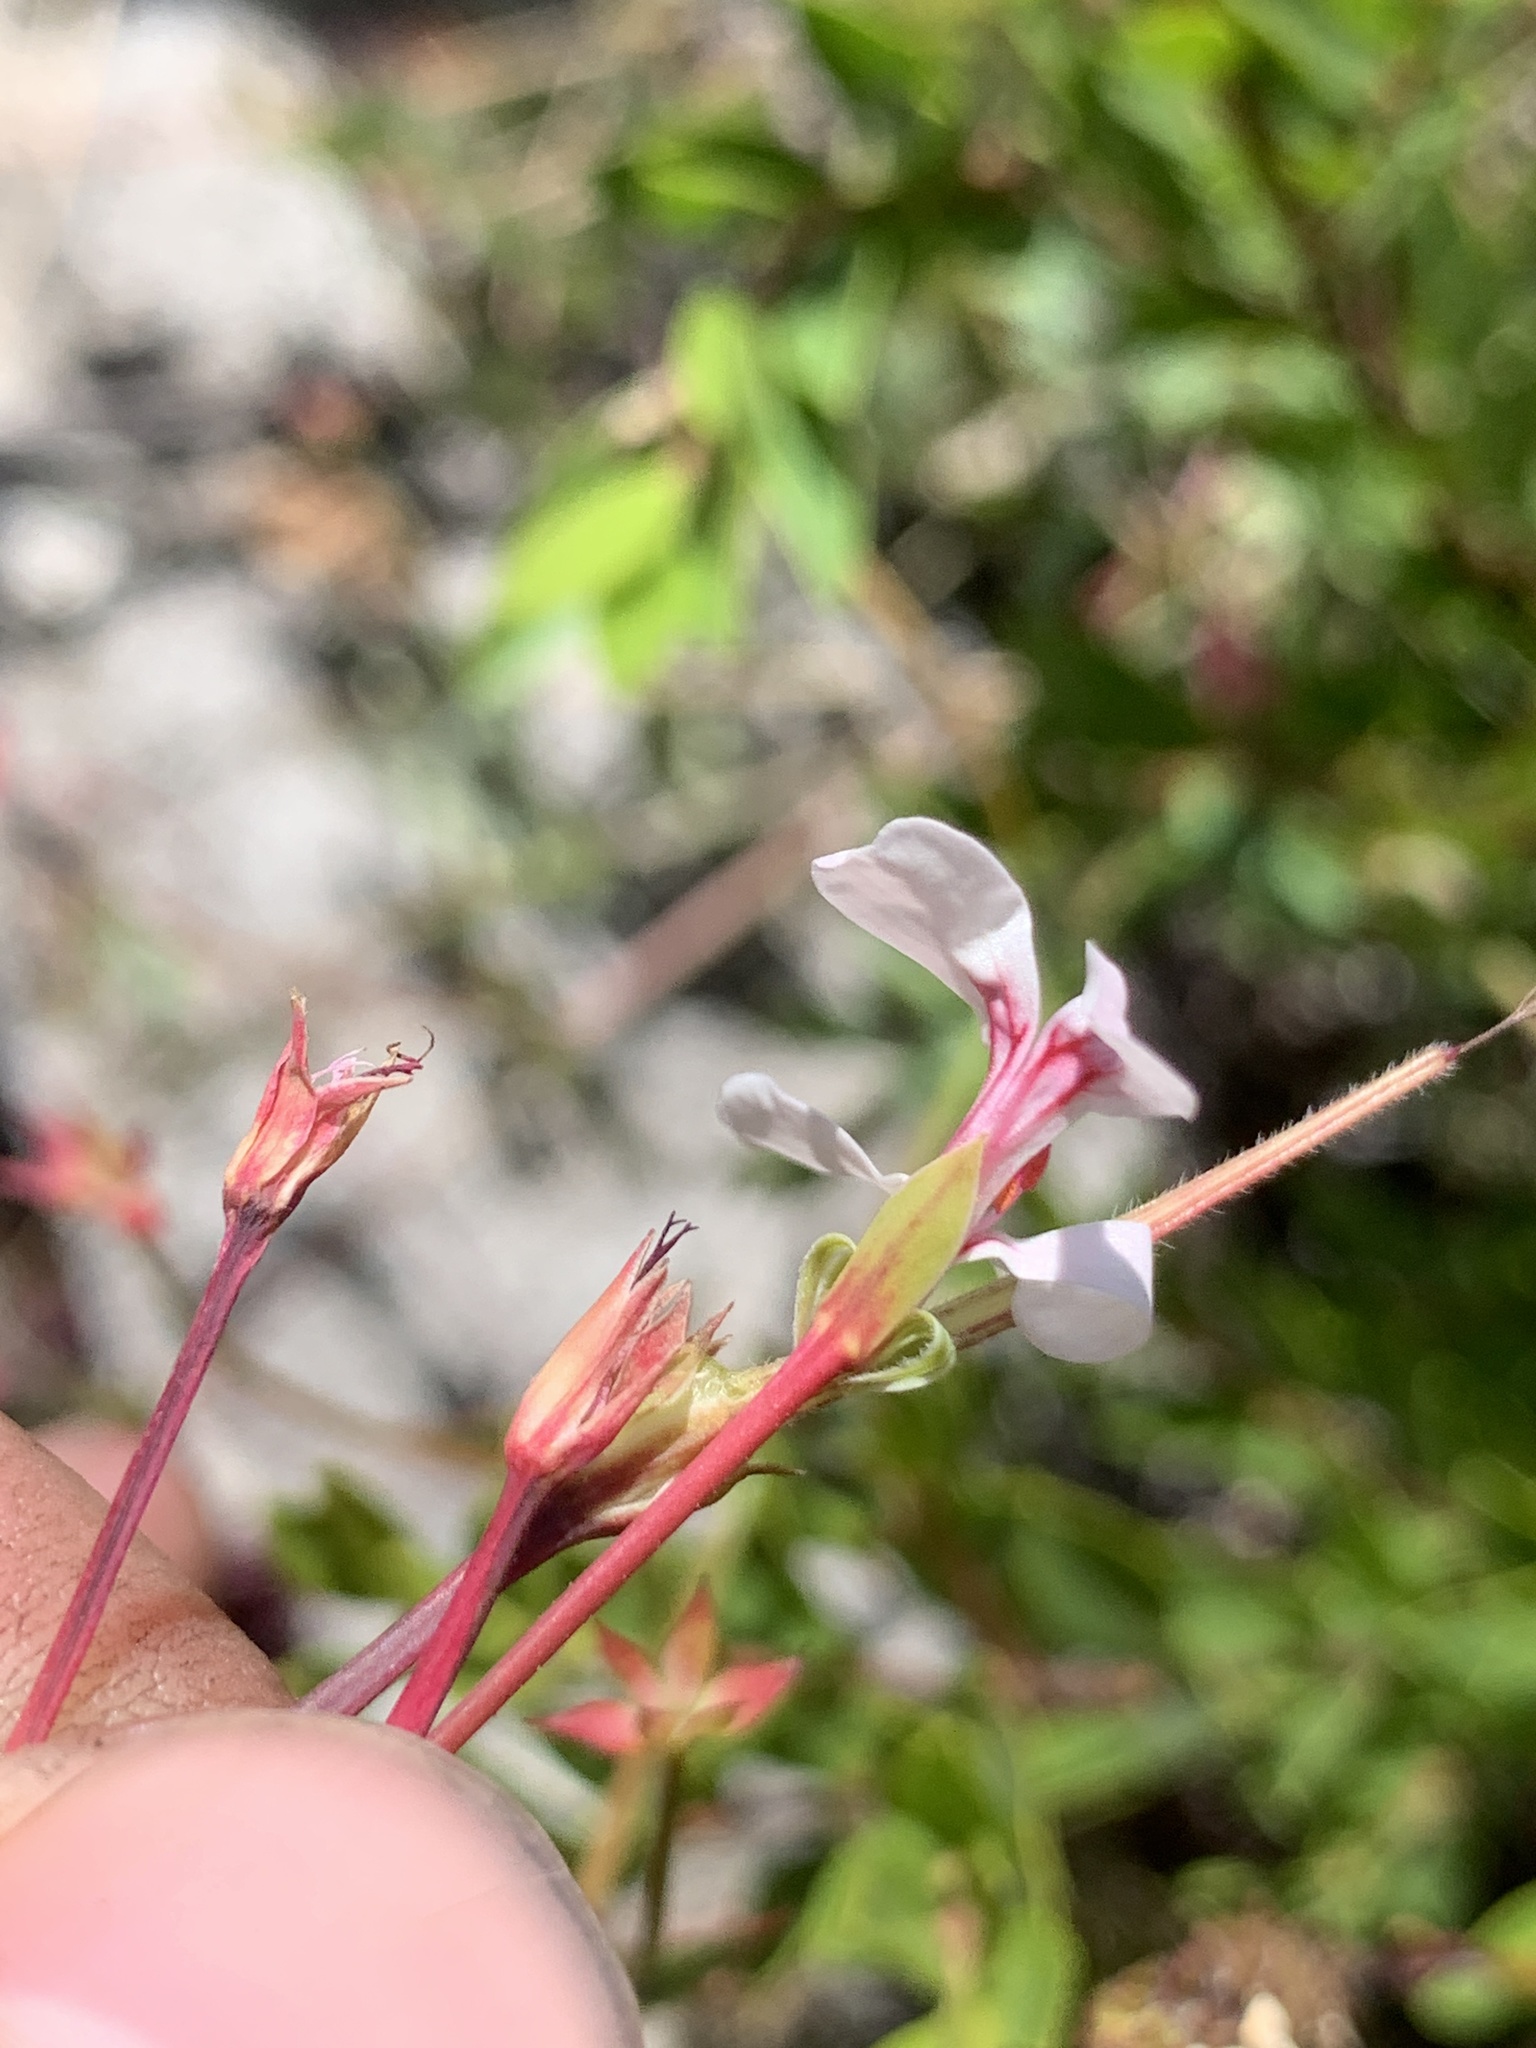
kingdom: Plantae
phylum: Tracheophyta
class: Magnoliopsida
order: Geraniales
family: Geraniaceae
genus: Pelargonium
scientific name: Pelargonium patulum
